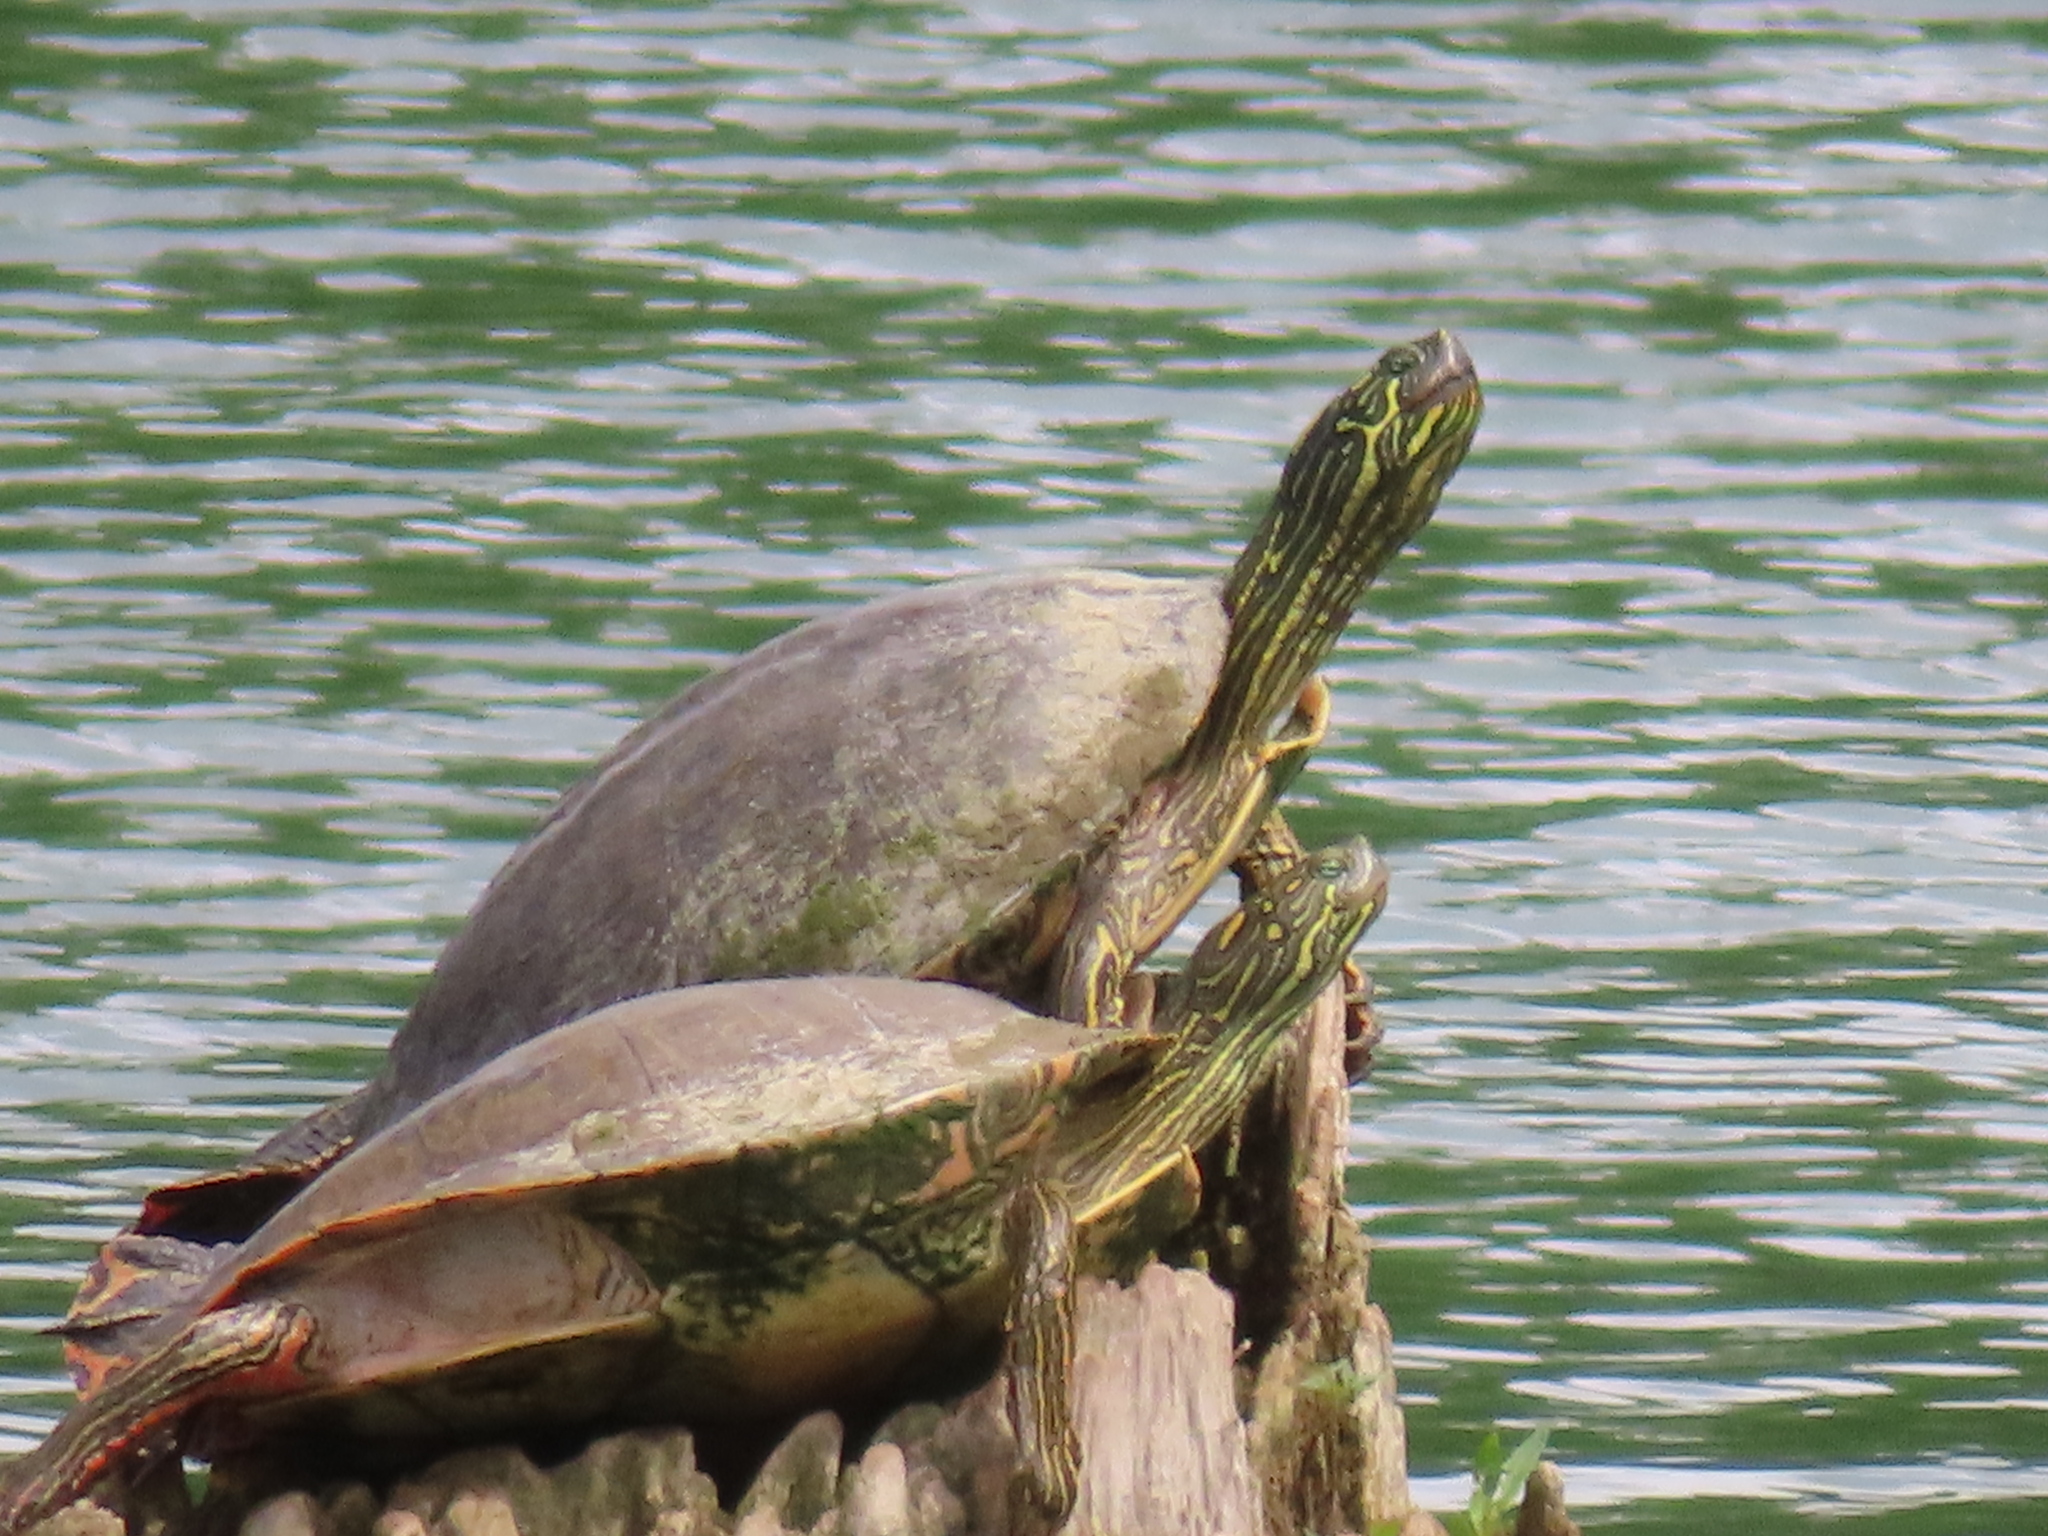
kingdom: Animalia
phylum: Chordata
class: Testudines
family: Emydidae
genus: Pseudemys
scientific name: Pseudemys texana
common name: Texas river cooter
